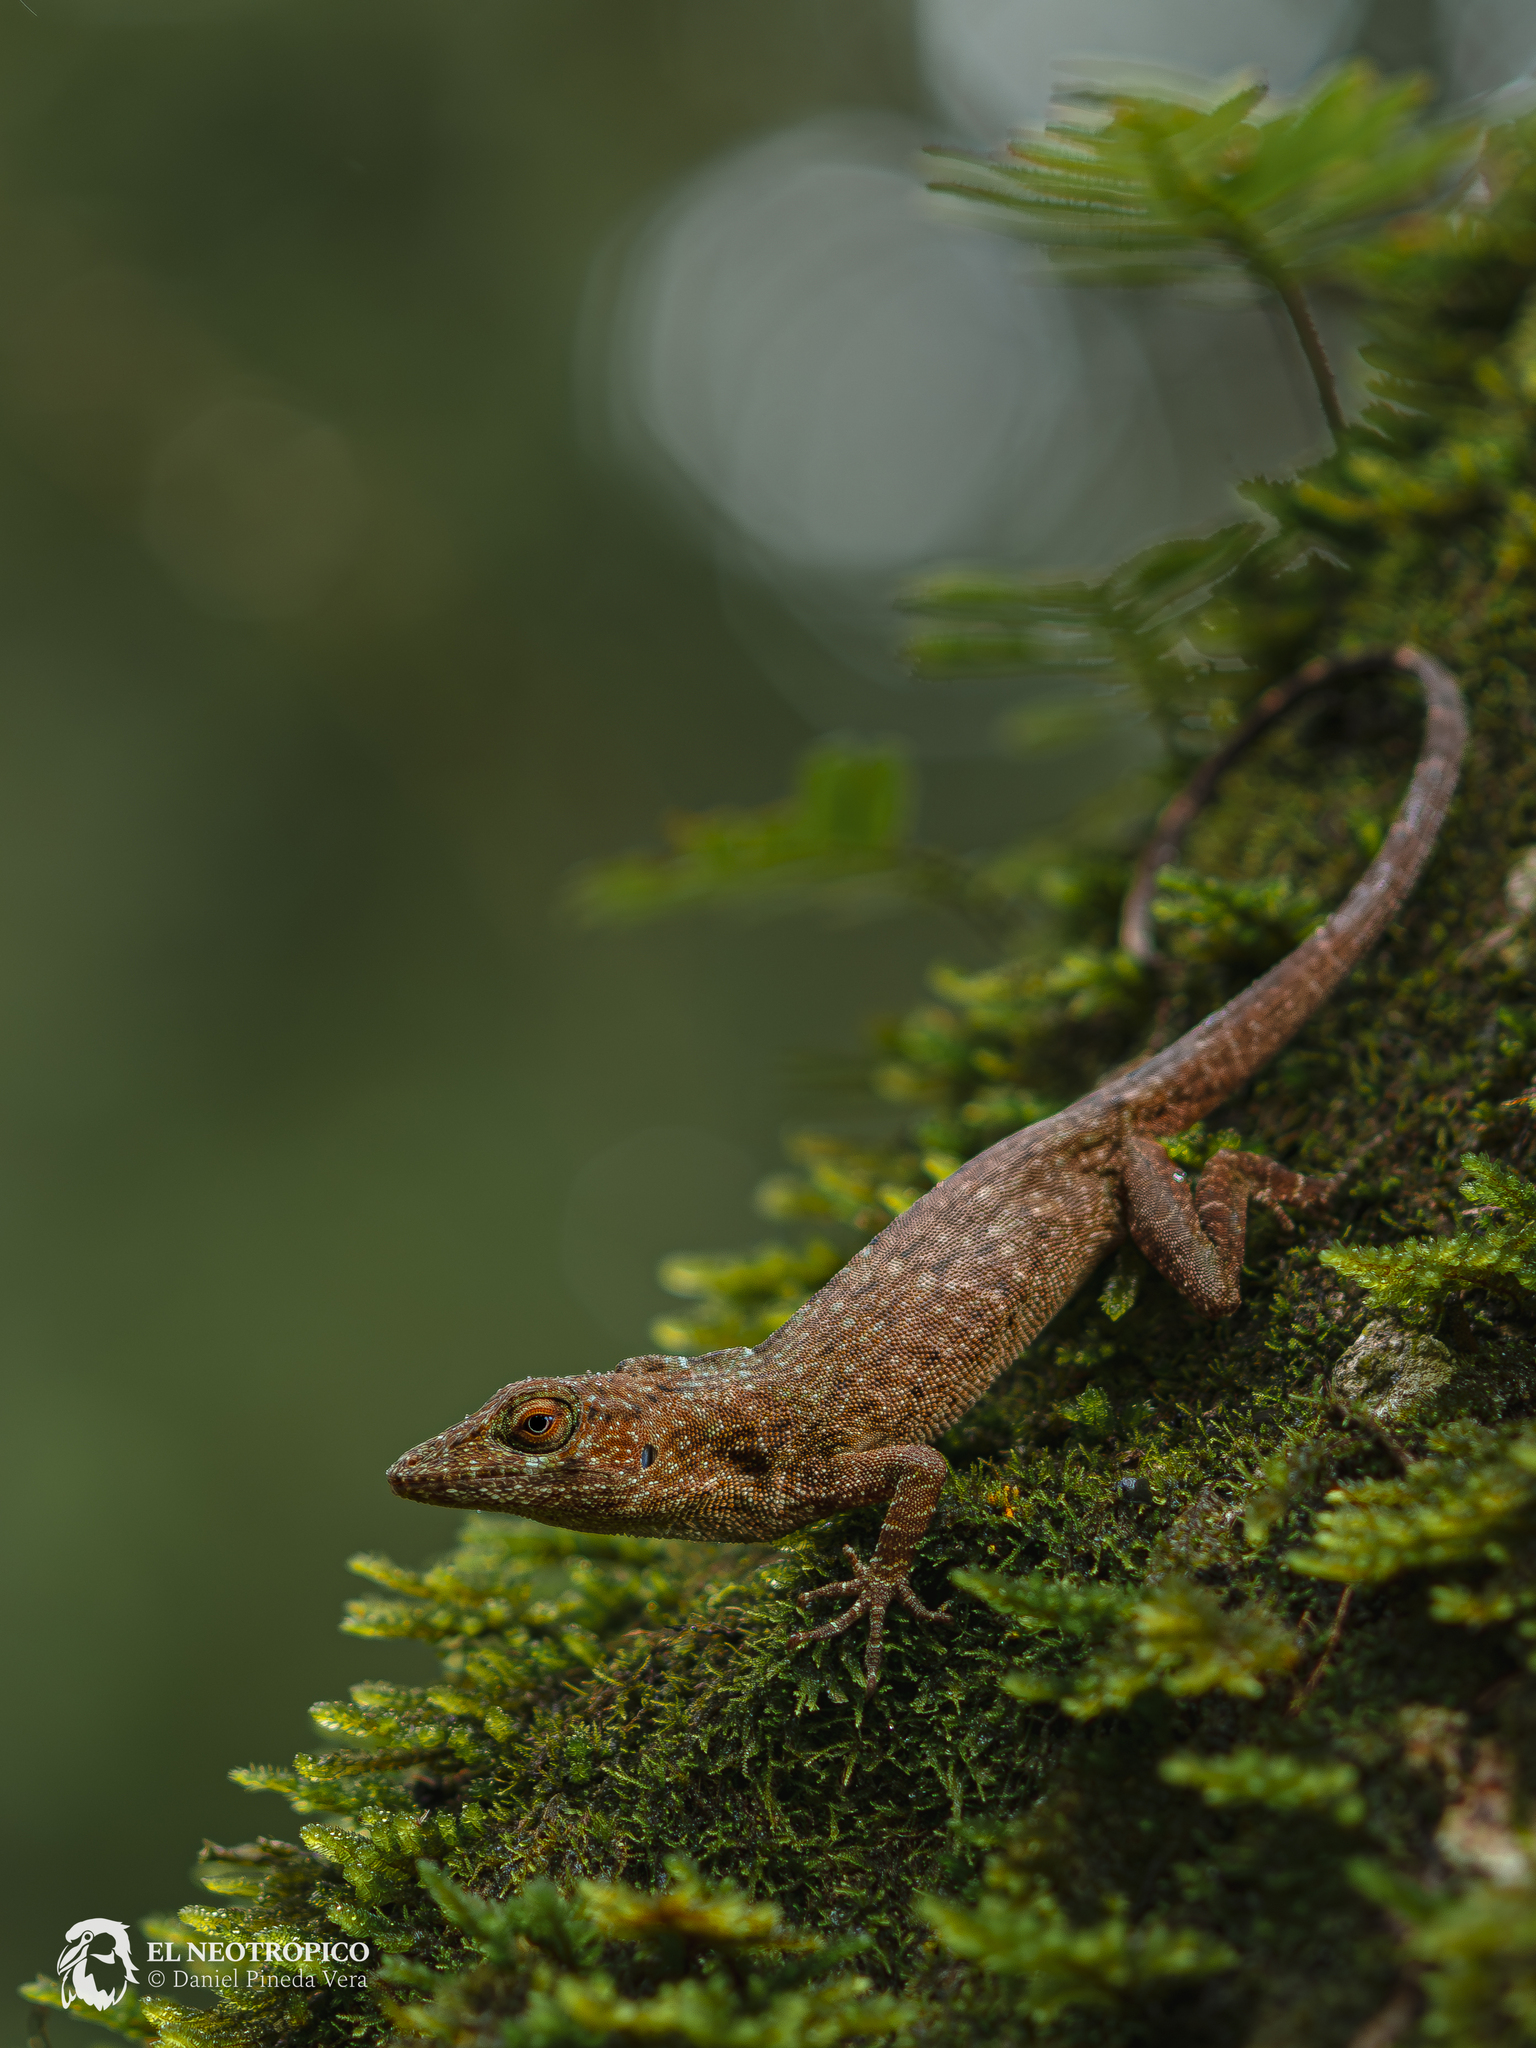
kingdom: Animalia
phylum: Chordata
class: Squamata
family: Dactyloidae
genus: Anolis
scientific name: Anolis biporcatus
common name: Giant green anole
